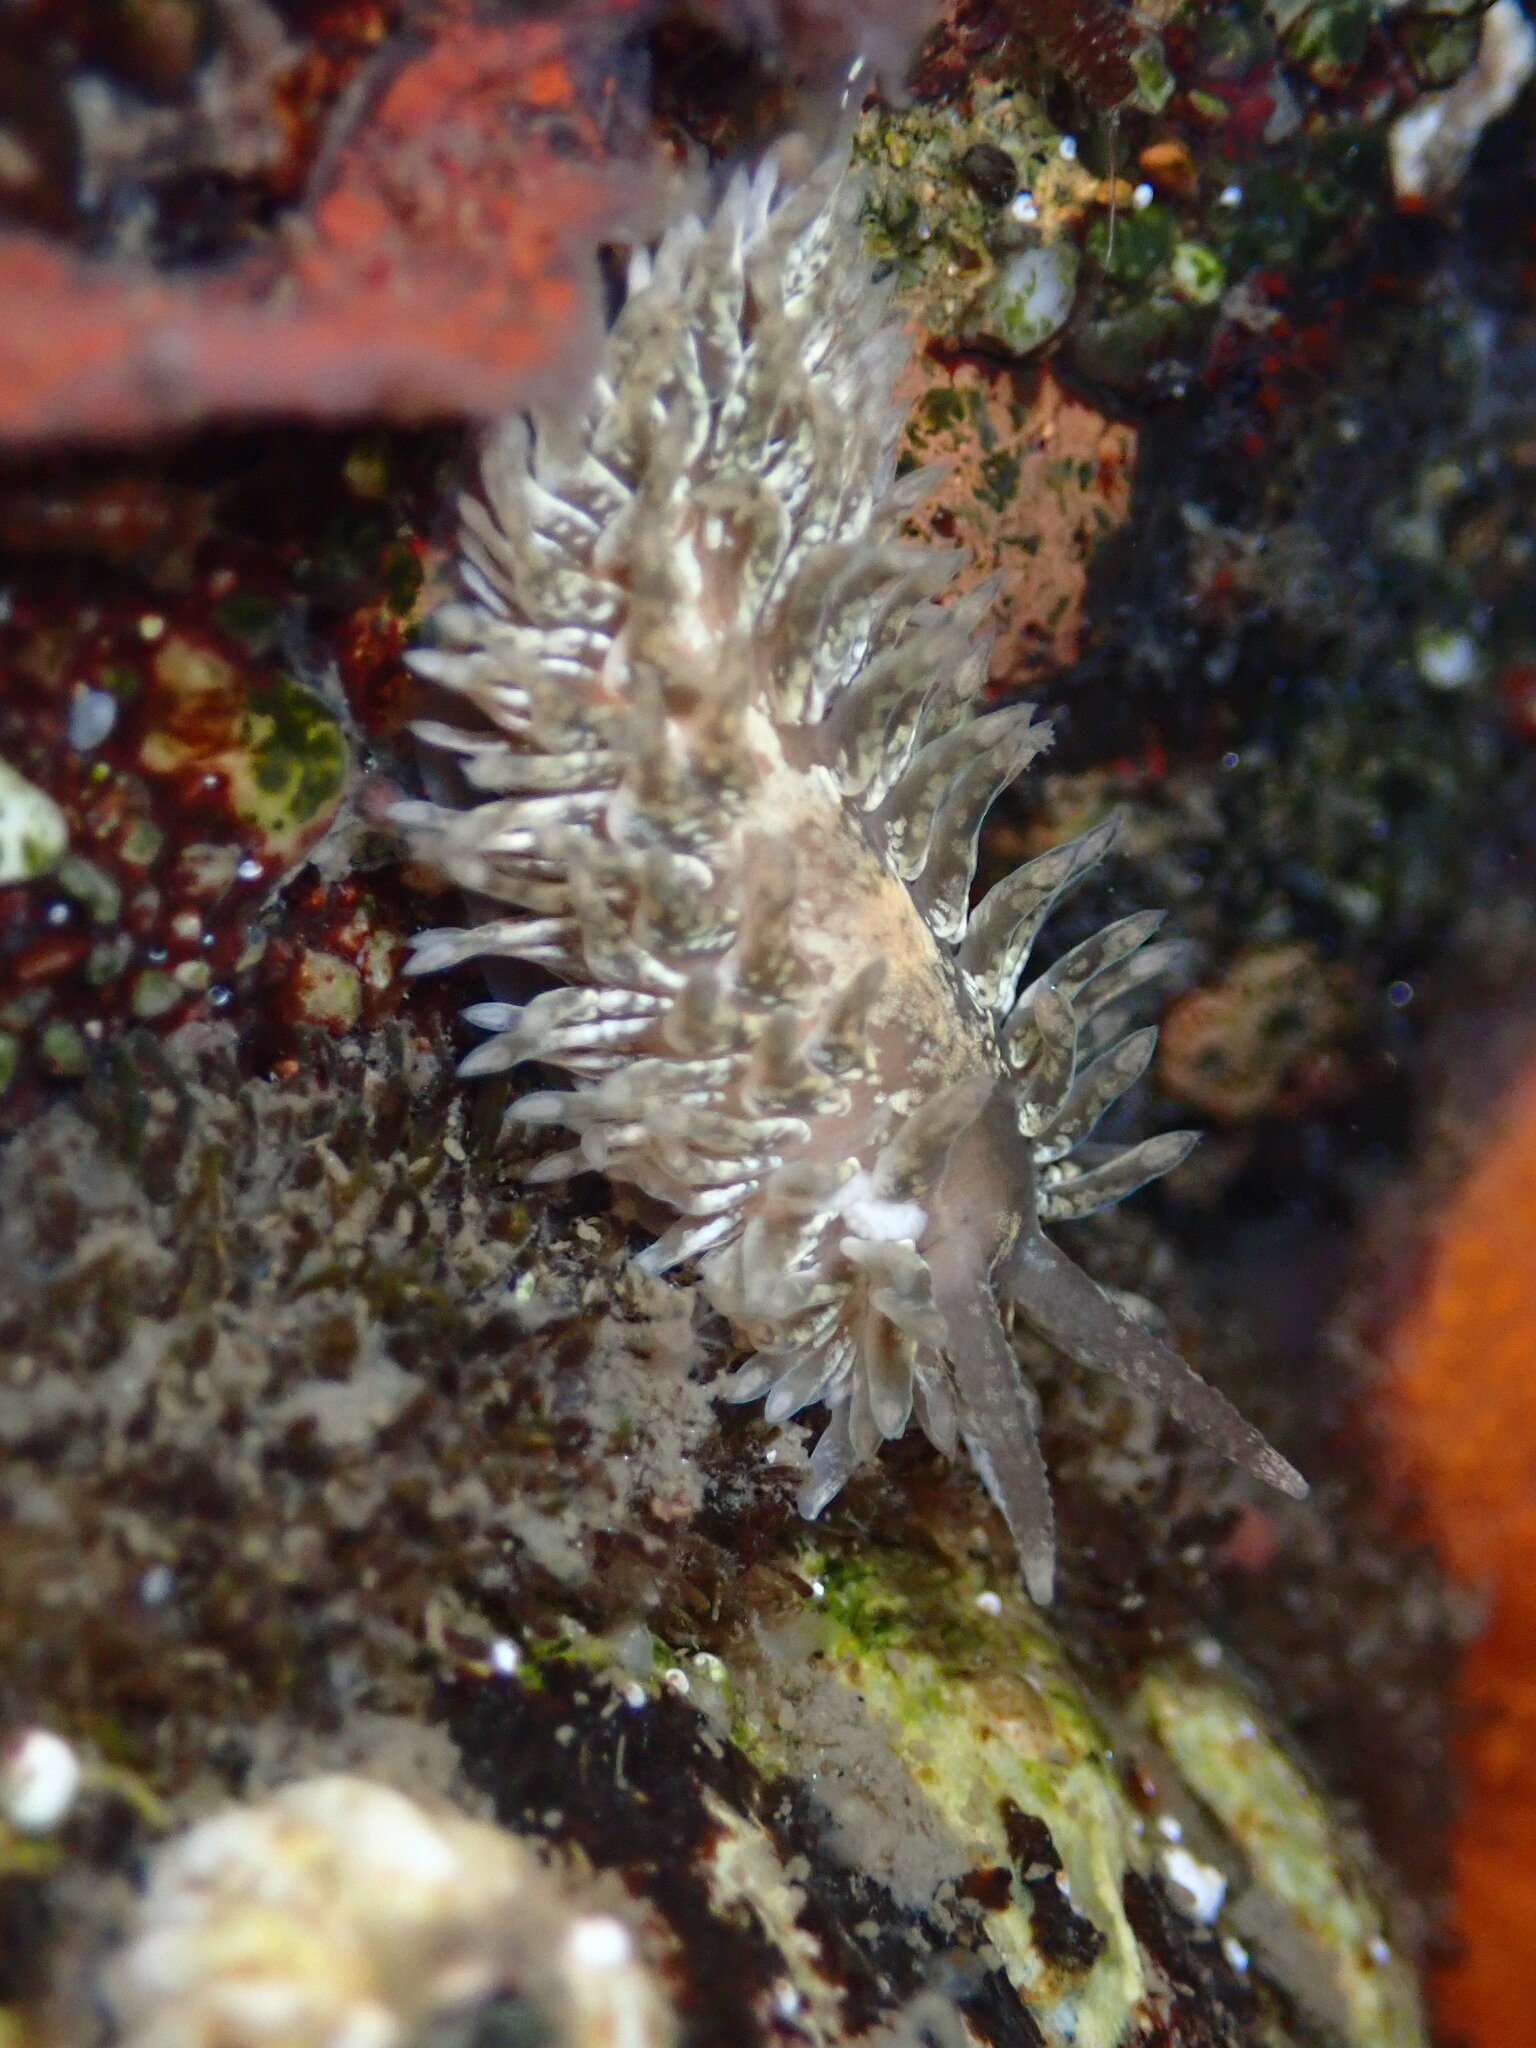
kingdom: Animalia
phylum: Mollusca
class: Gastropoda
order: Nudibranchia
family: Aeolidiidae
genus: Aeolidia
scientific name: Aeolidia loui
